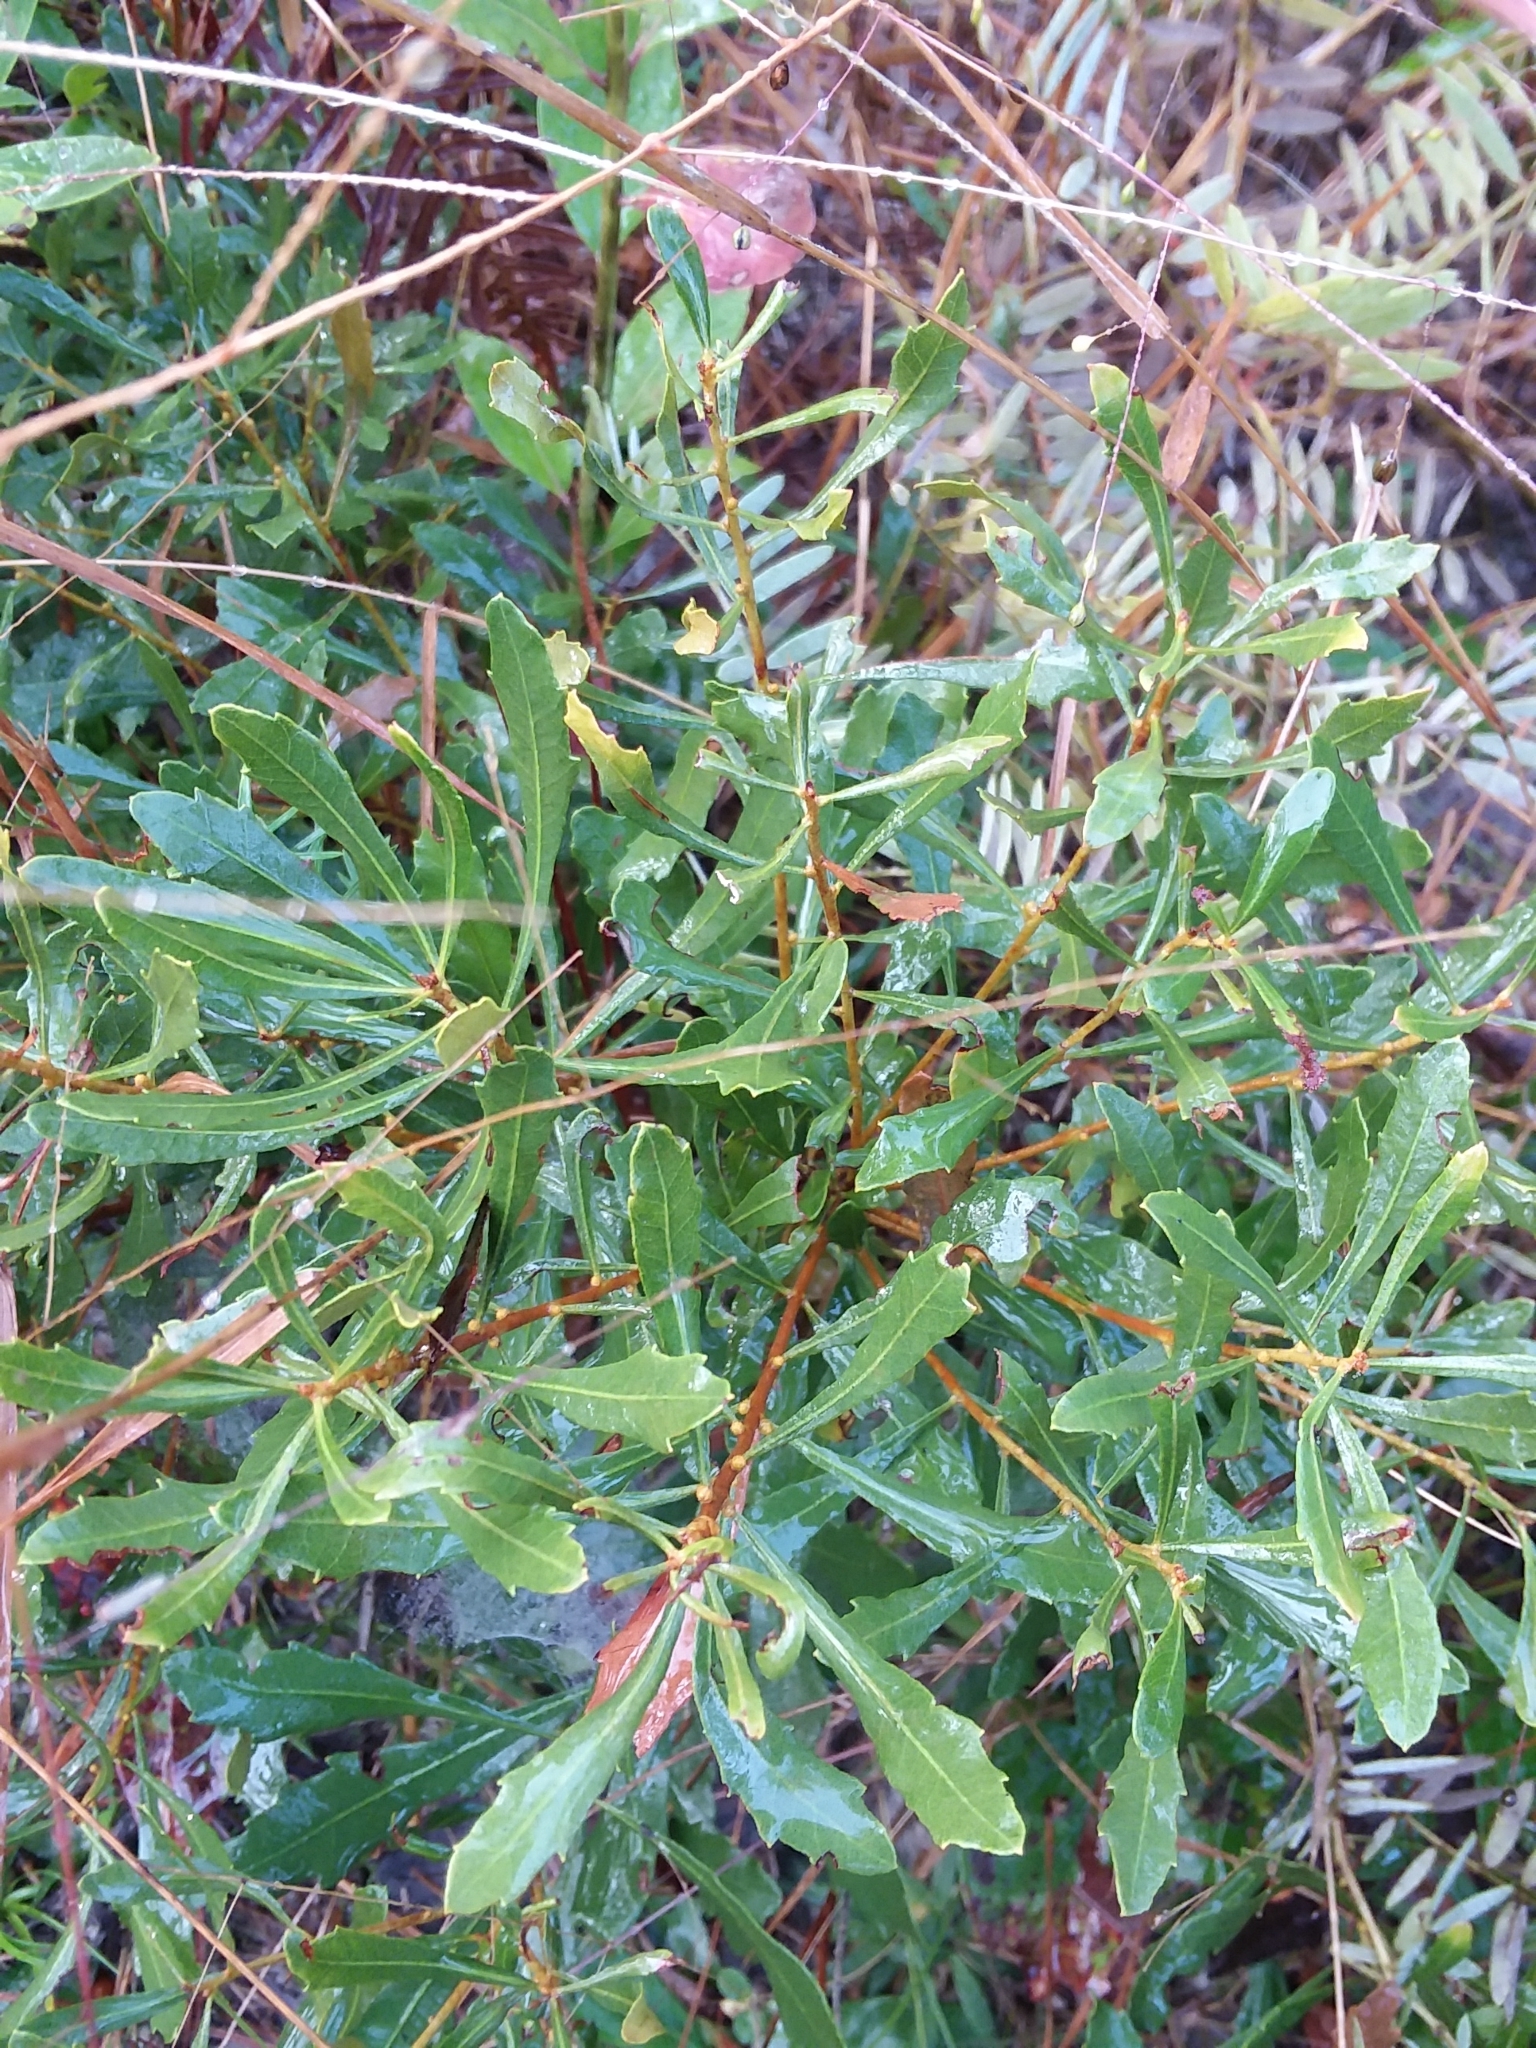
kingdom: Plantae
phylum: Tracheophyta
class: Magnoliopsida
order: Fagales
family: Myricaceae
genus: Morella
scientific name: Morella cerifera
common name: Wax myrtle
